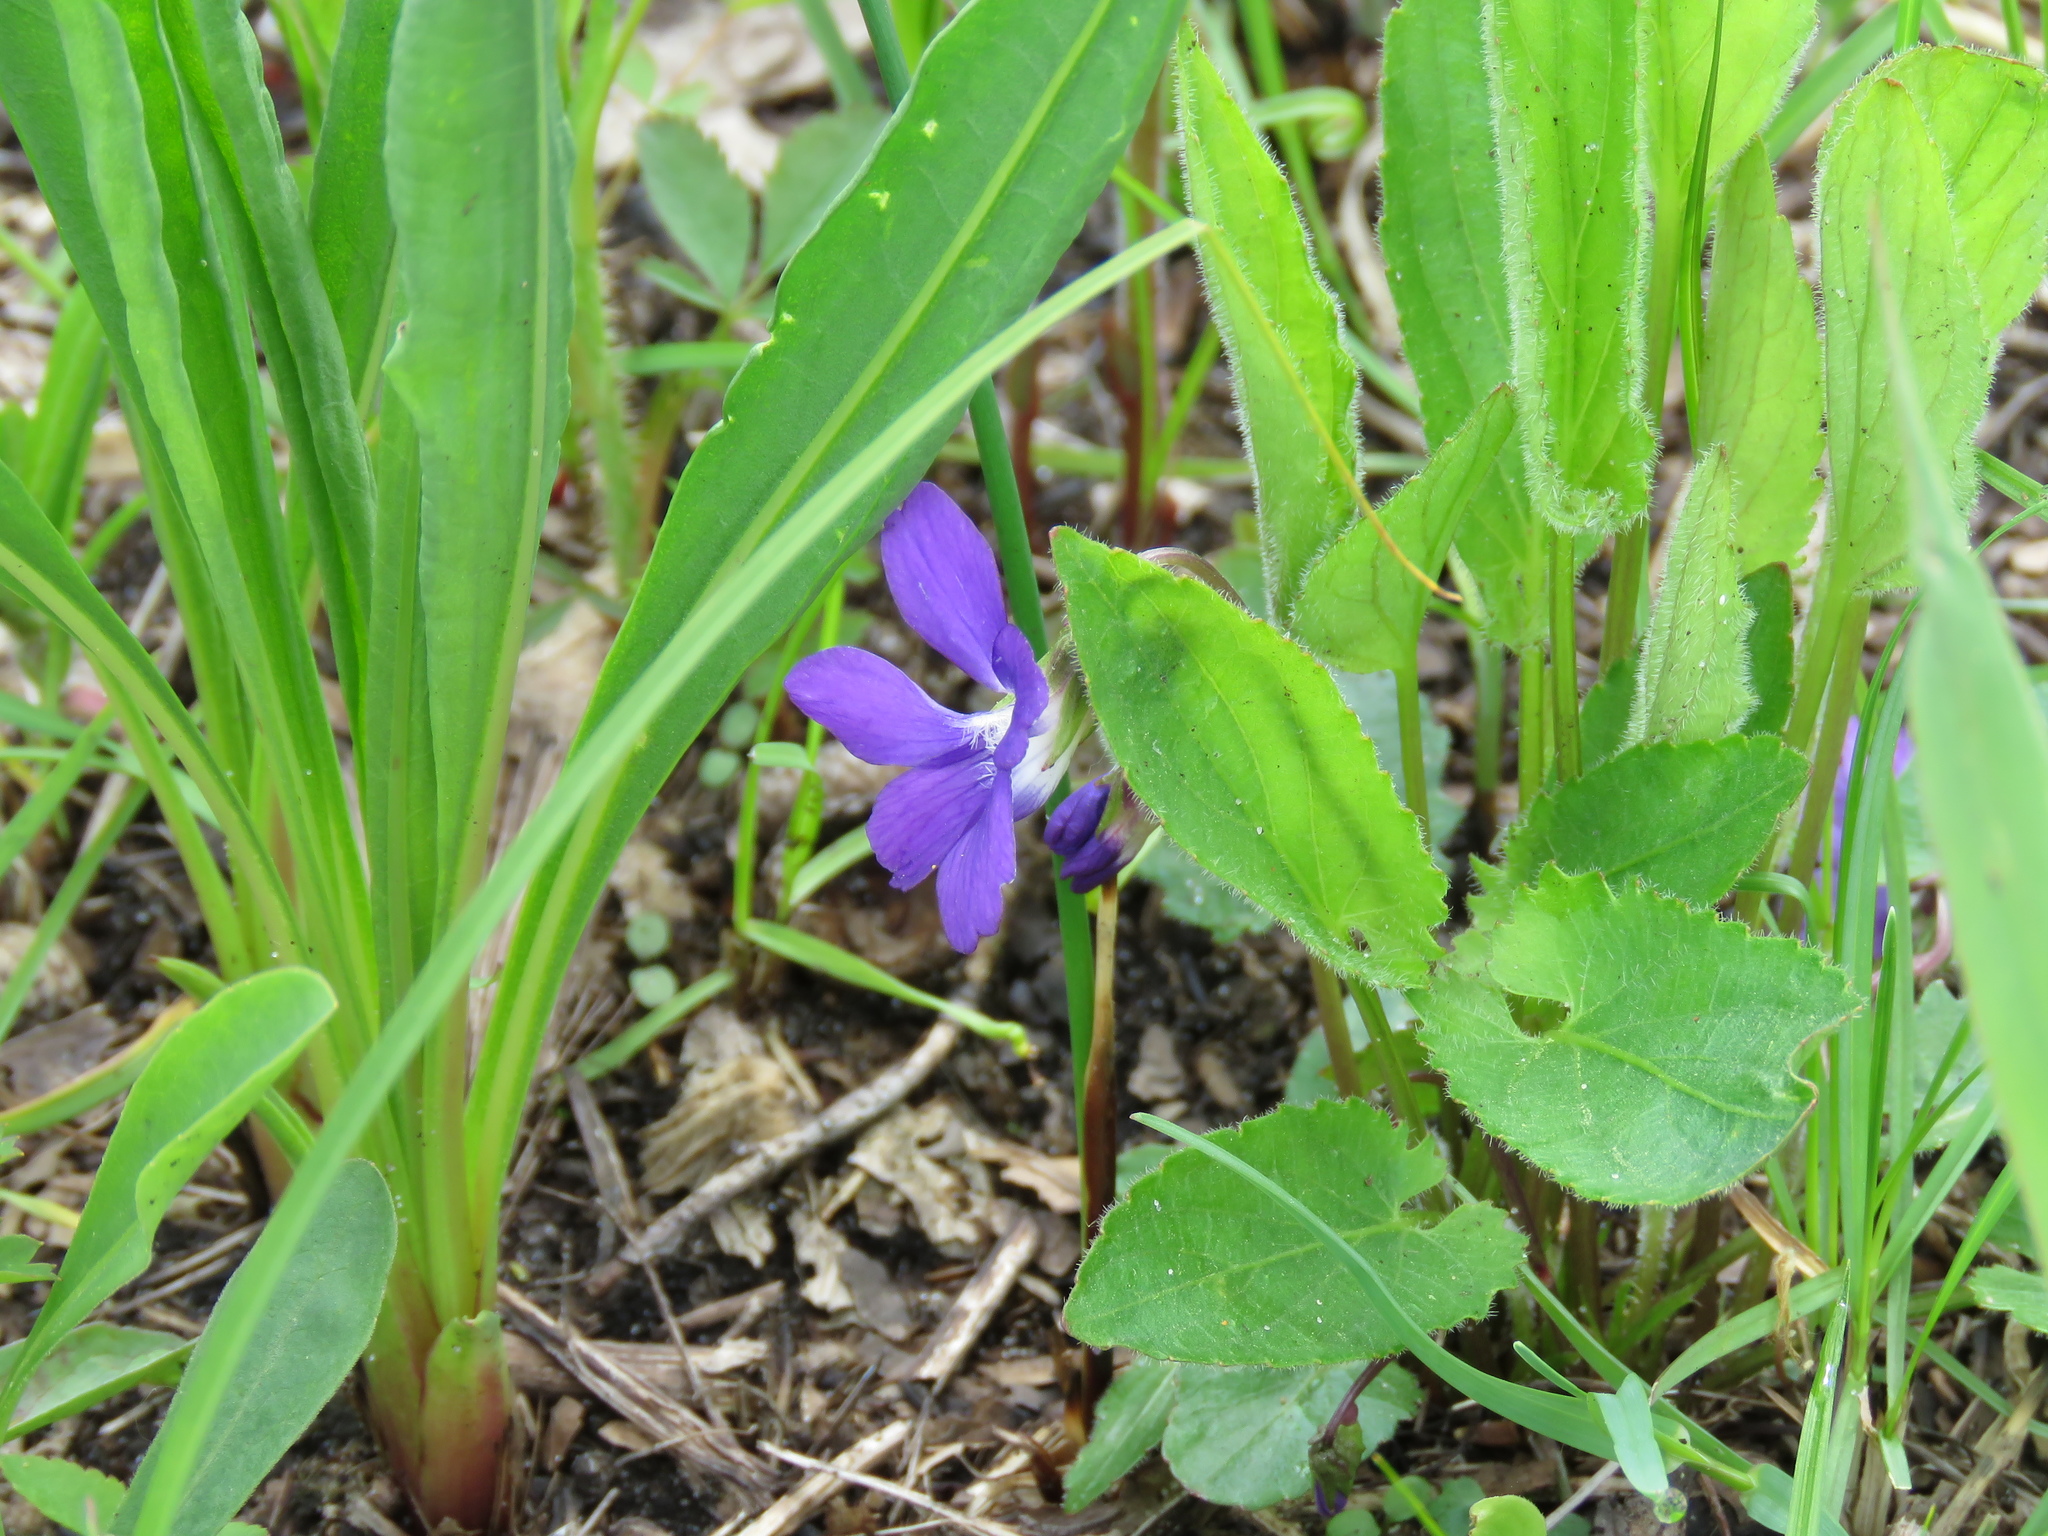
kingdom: Plantae
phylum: Tracheophyta
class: Magnoliopsida
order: Malpighiales
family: Violaceae
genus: Viola
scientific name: Viola sagittata
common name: Arrowhead violet
